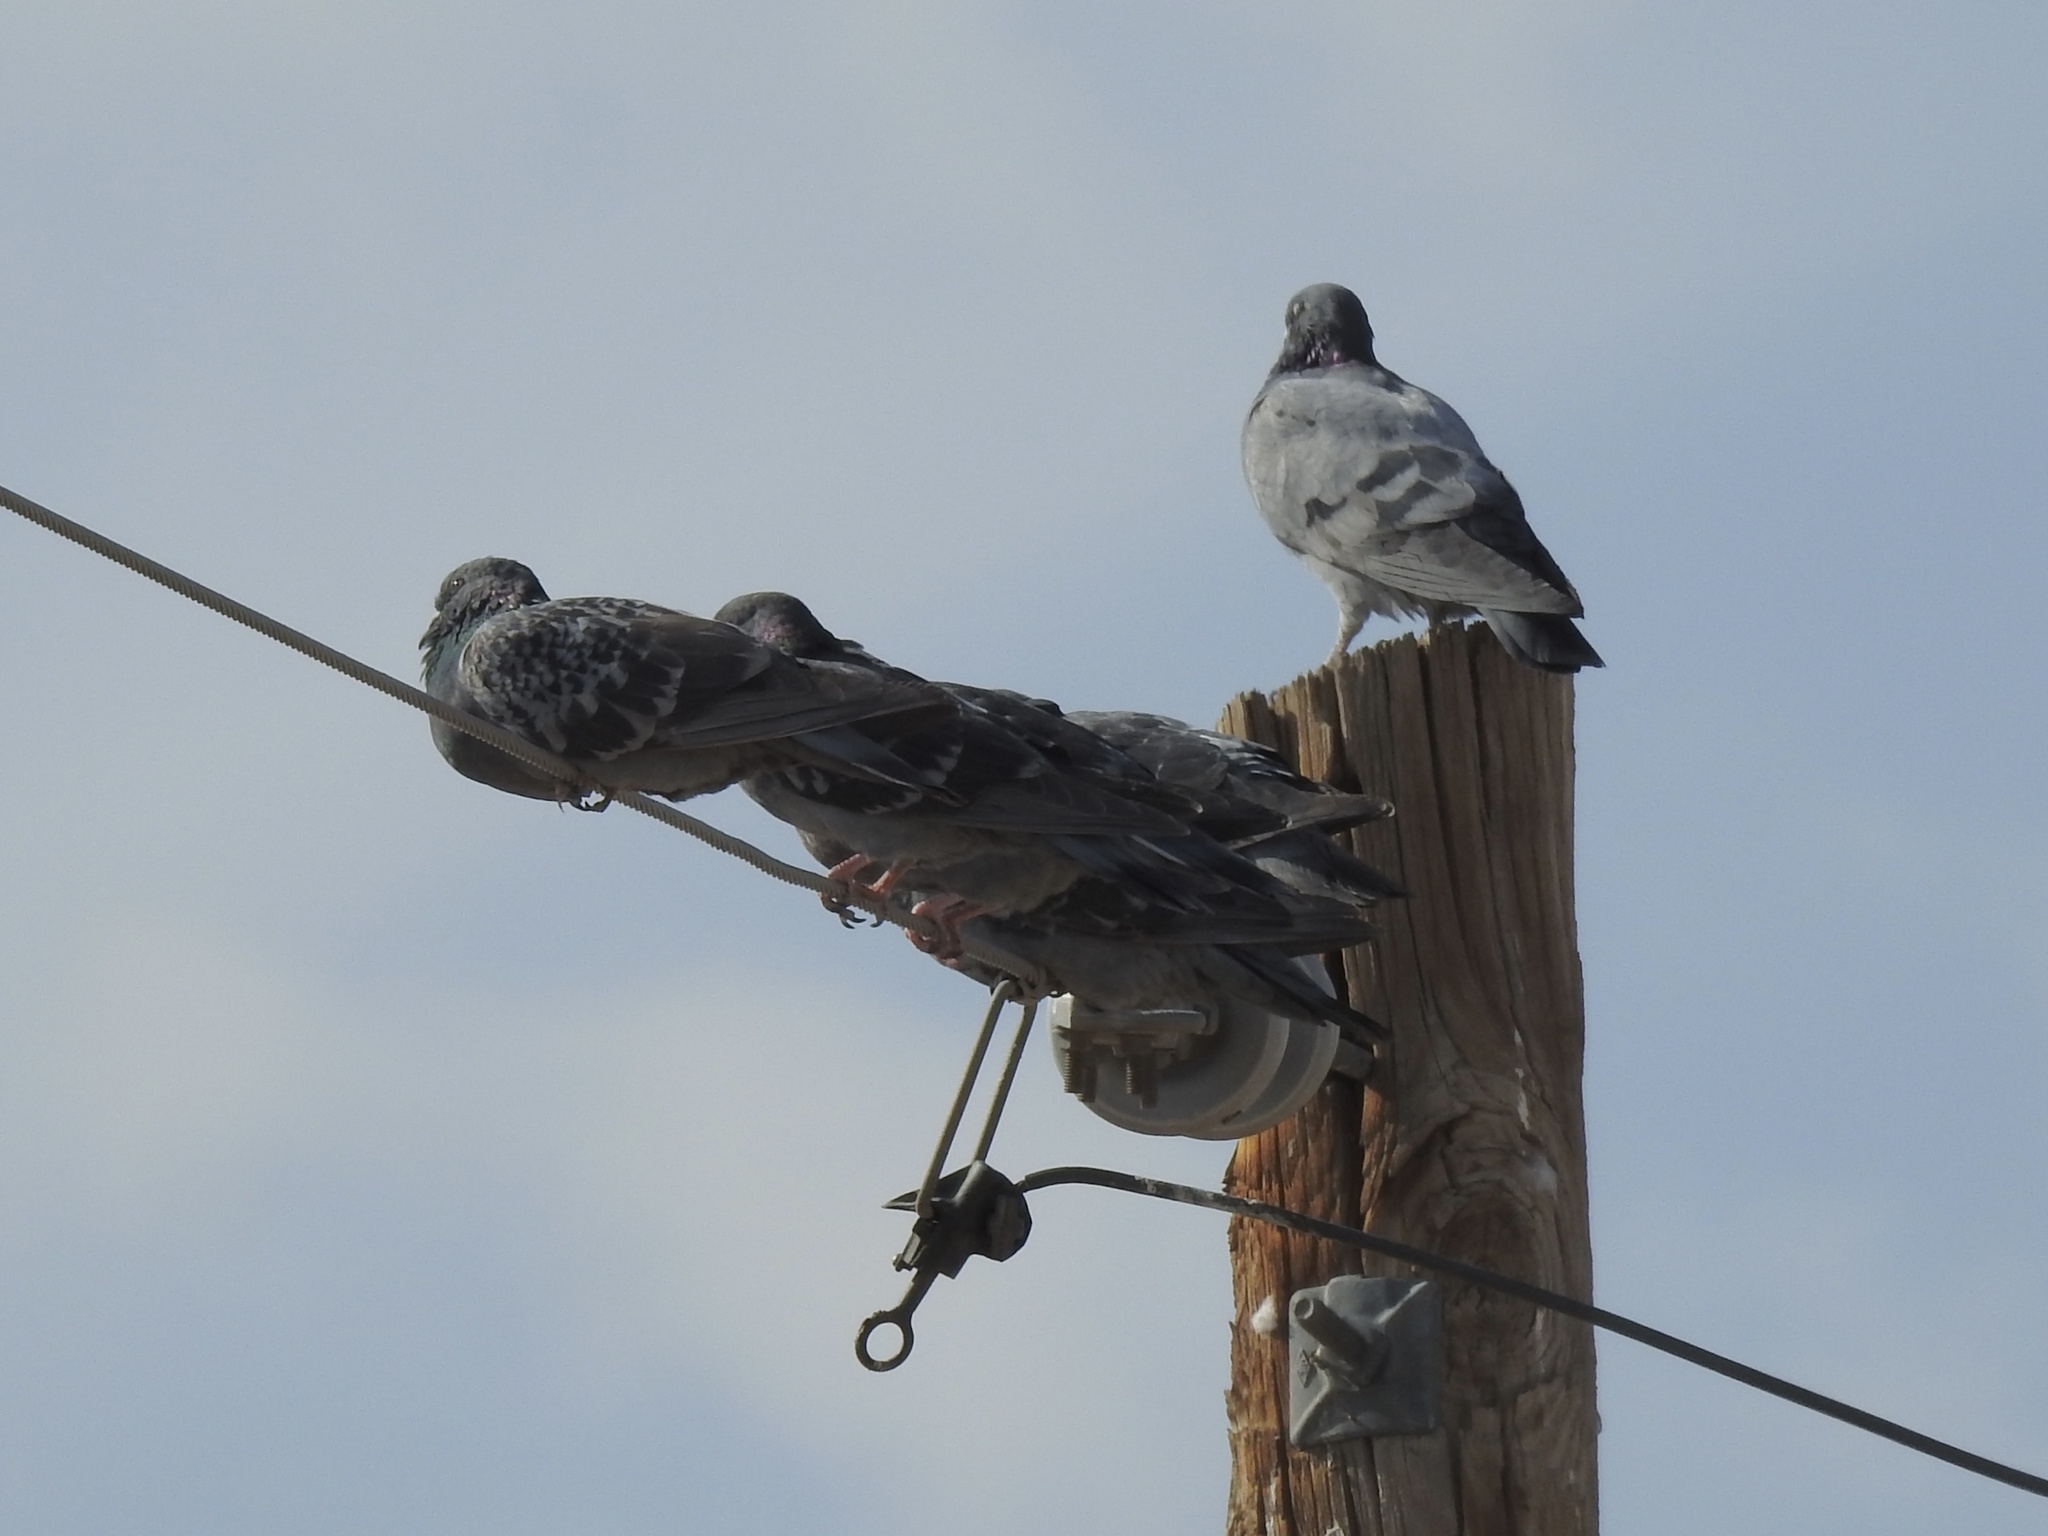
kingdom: Animalia
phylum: Chordata
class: Aves
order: Columbiformes
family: Columbidae
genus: Columba
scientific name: Columba livia
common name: Rock pigeon
